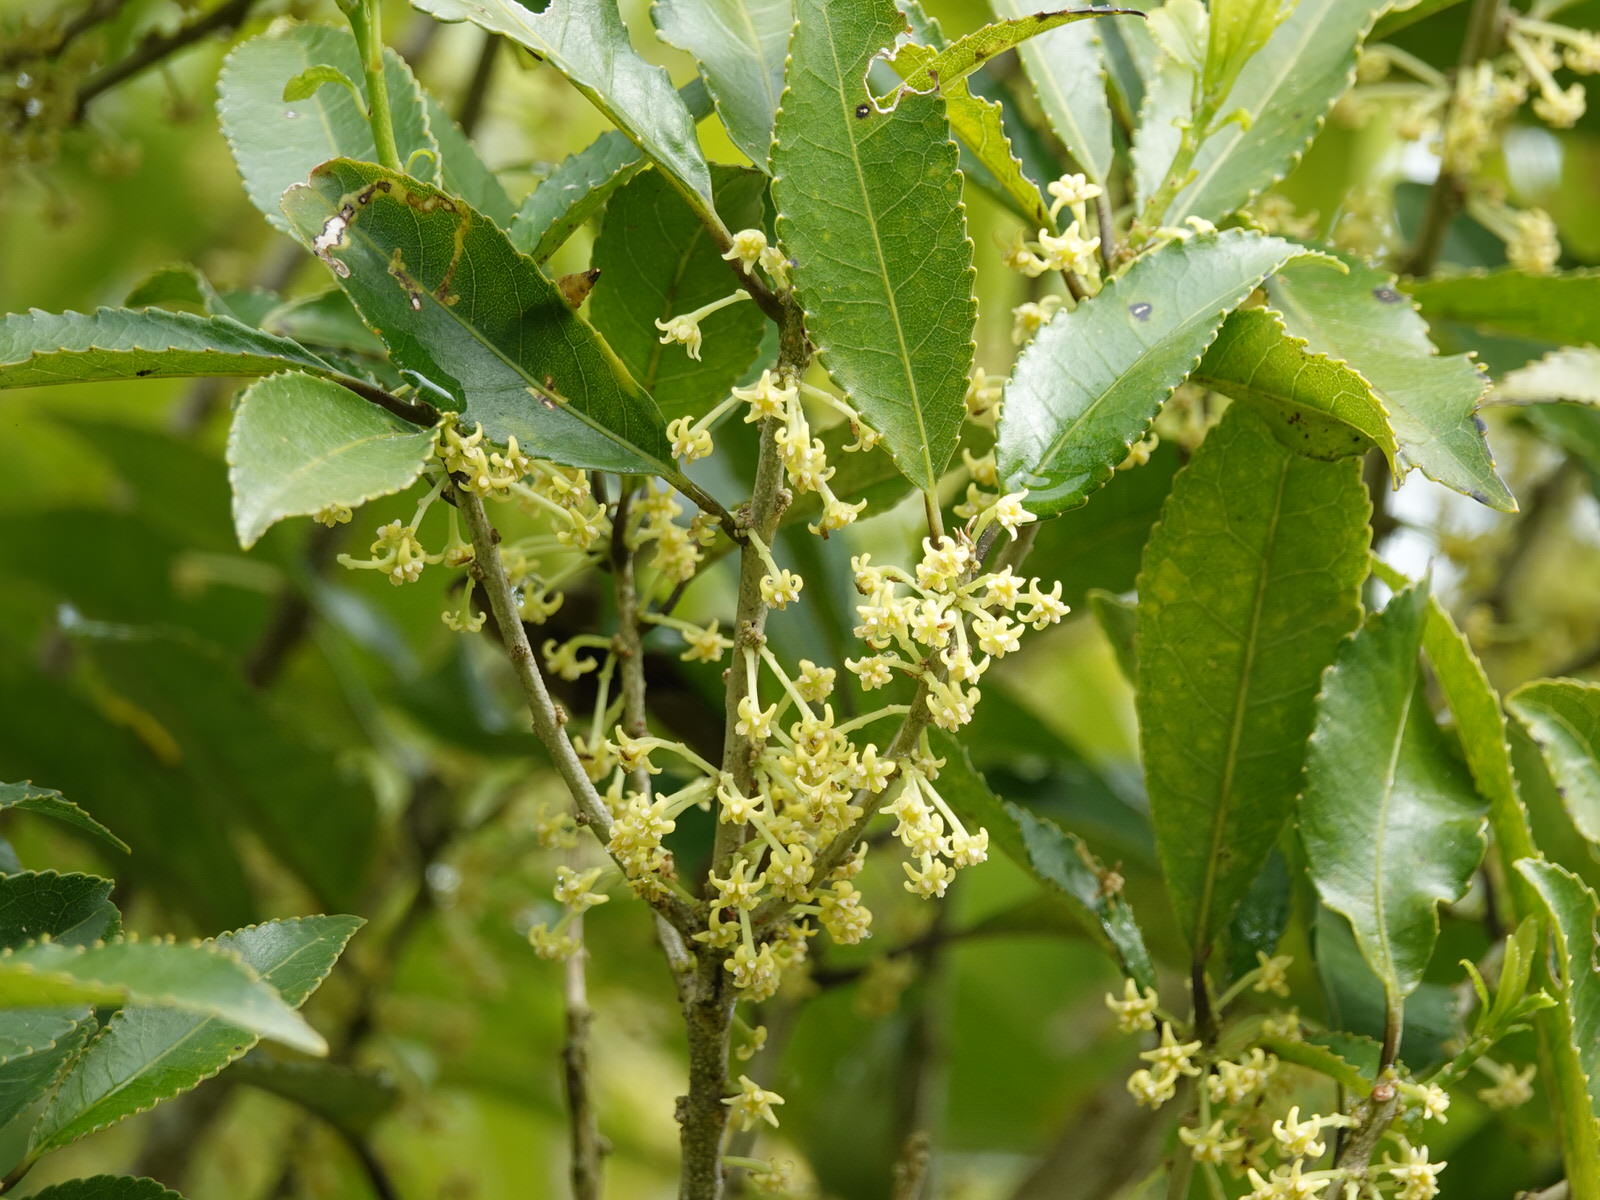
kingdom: Plantae
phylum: Tracheophyta
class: Magnoliopsida
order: Malpighiales
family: Violaceae
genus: Melicytus
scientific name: Melicytus ramiflorus
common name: Mahoe
